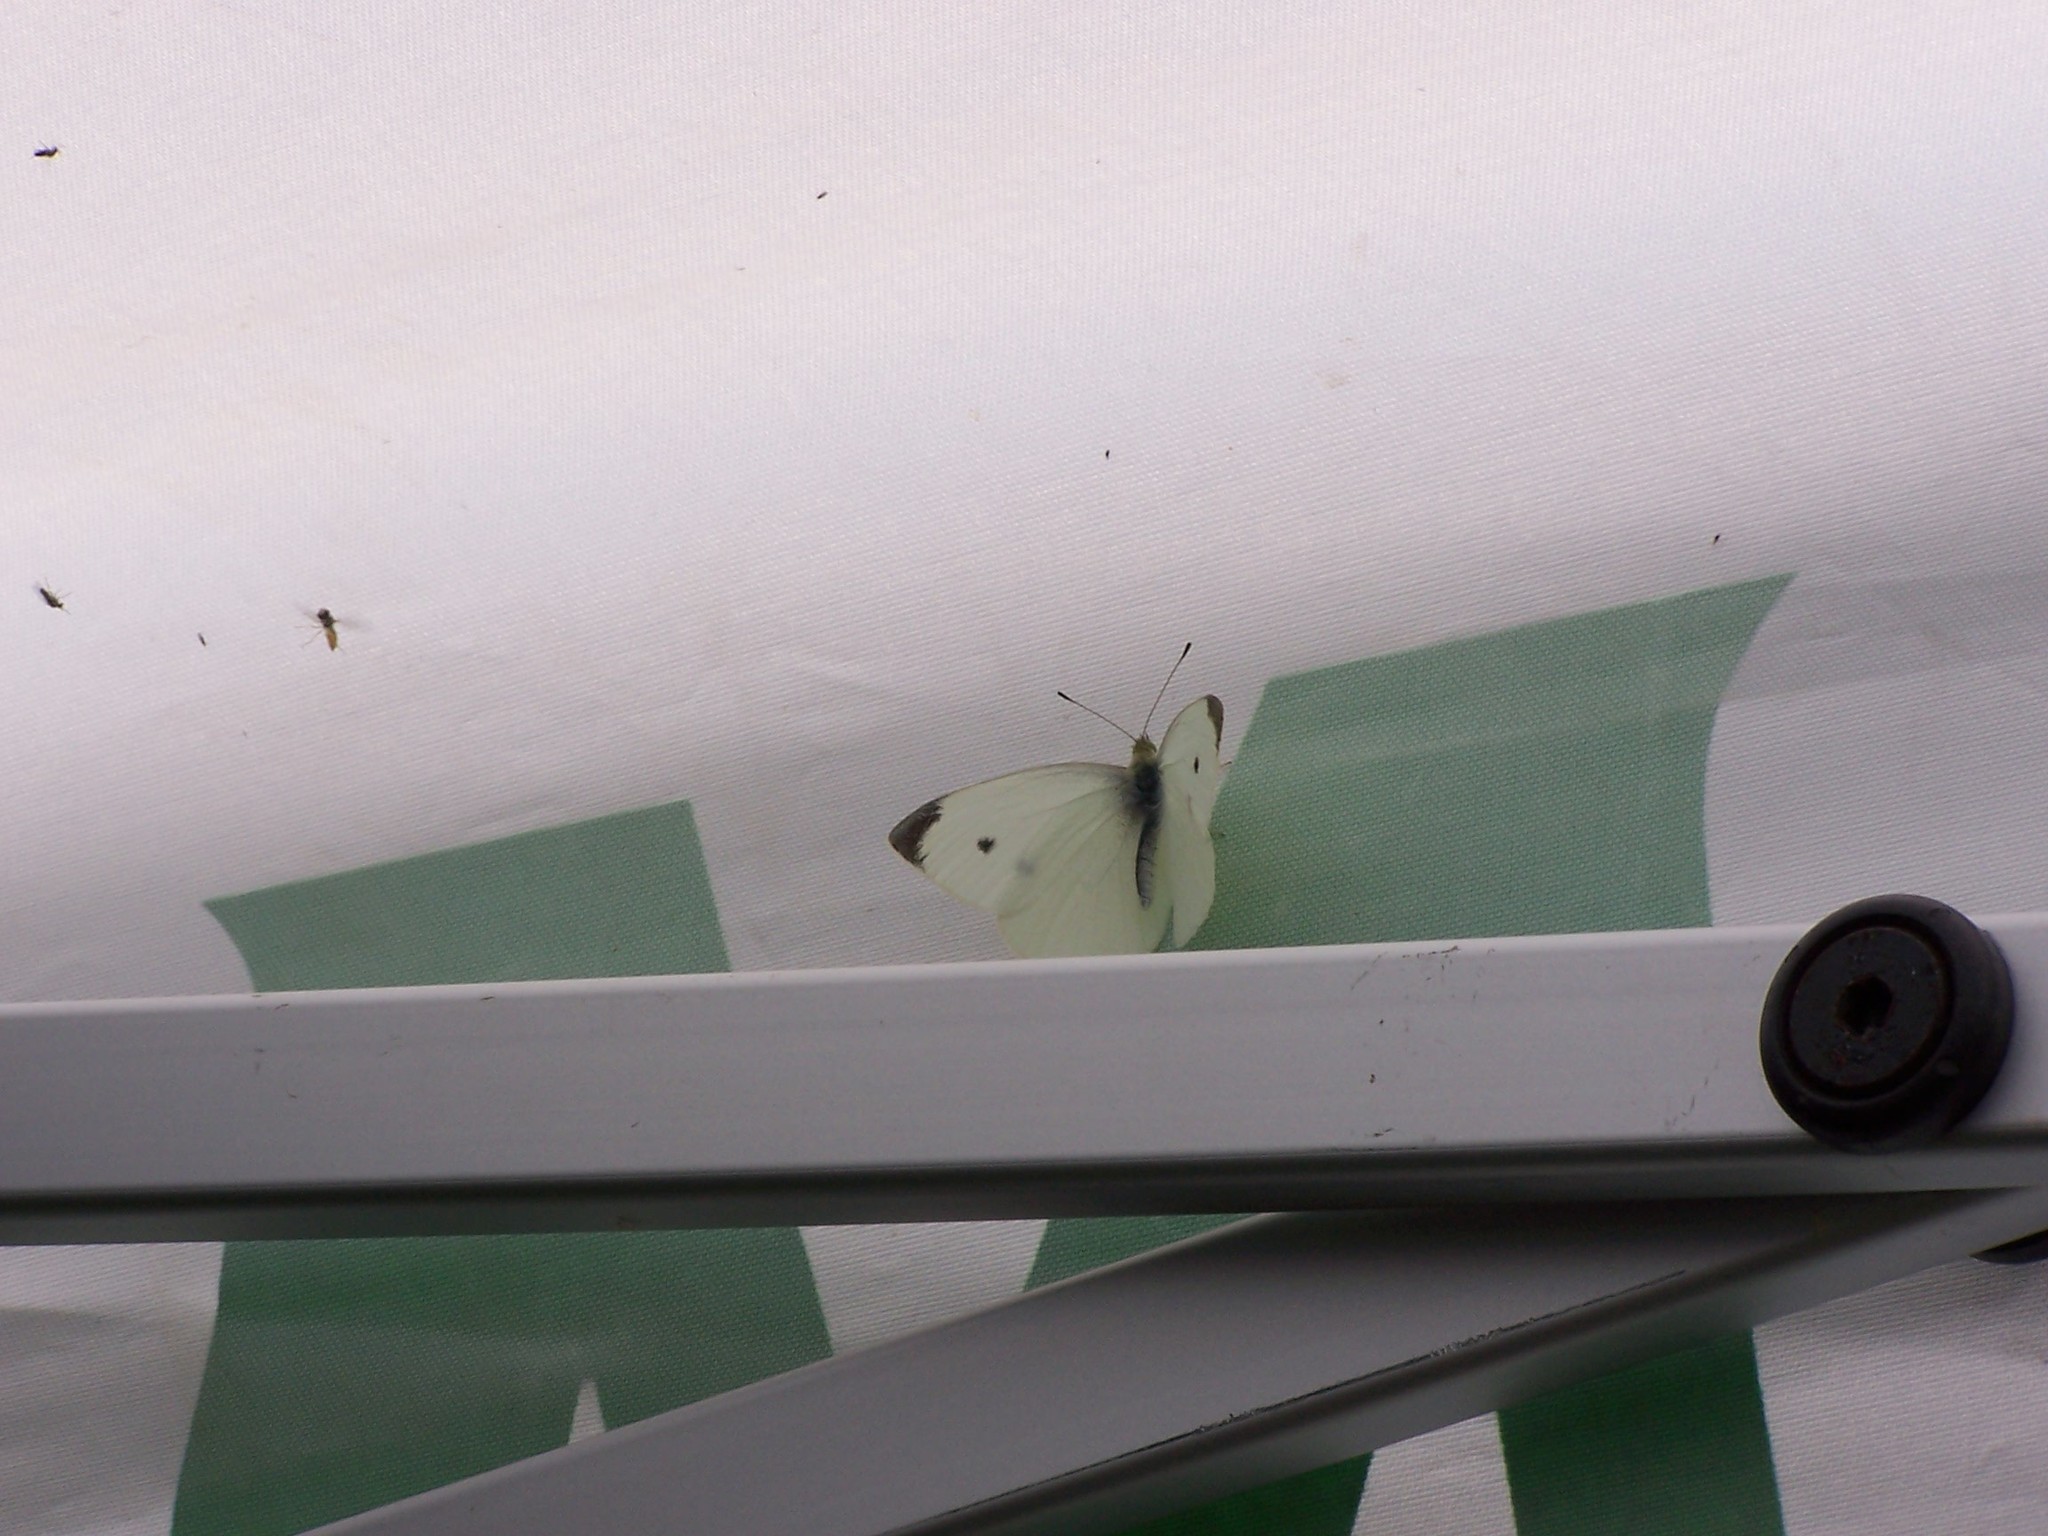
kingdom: Animalia
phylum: Arthropoda
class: Insecta
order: Lepidoptera
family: Pieridae
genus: Pieris
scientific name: Pieris rapae
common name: Small white
